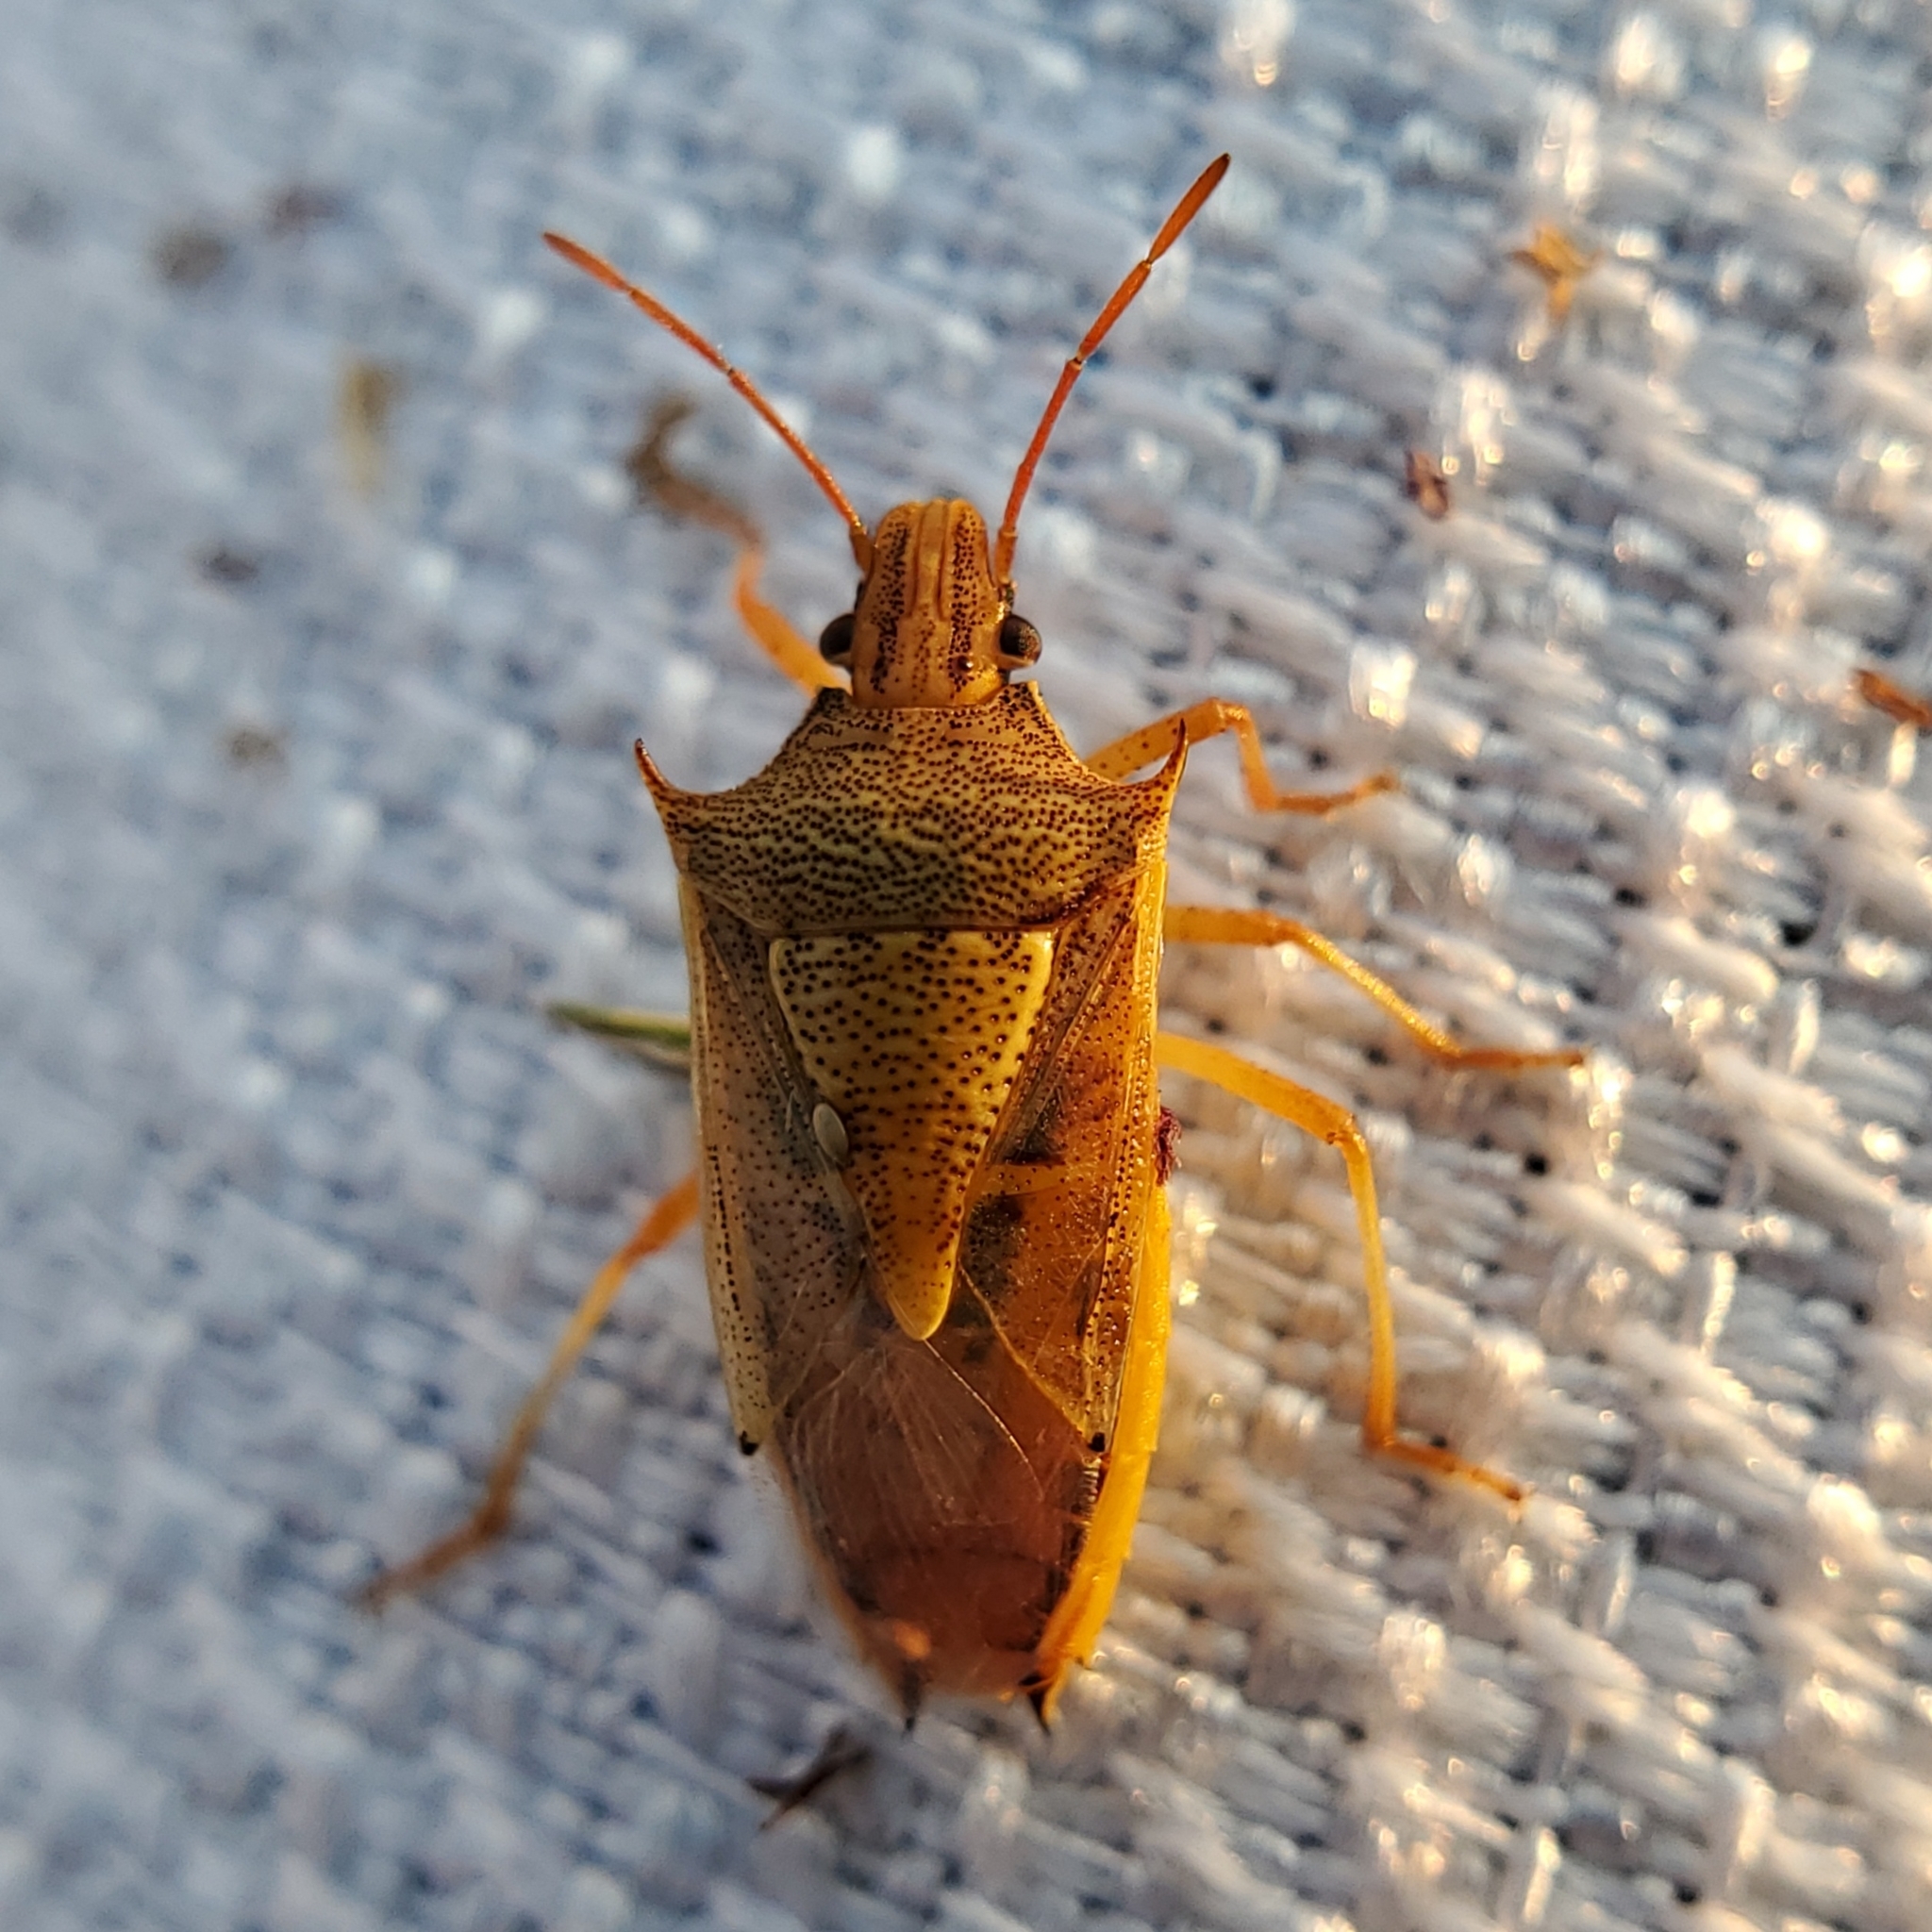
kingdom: Animalia
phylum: Arthropoda
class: Insecta
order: Hemiptera
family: Pentatomidae
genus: Oebalus
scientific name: Oebalus pugnax
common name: Rice stink bug
